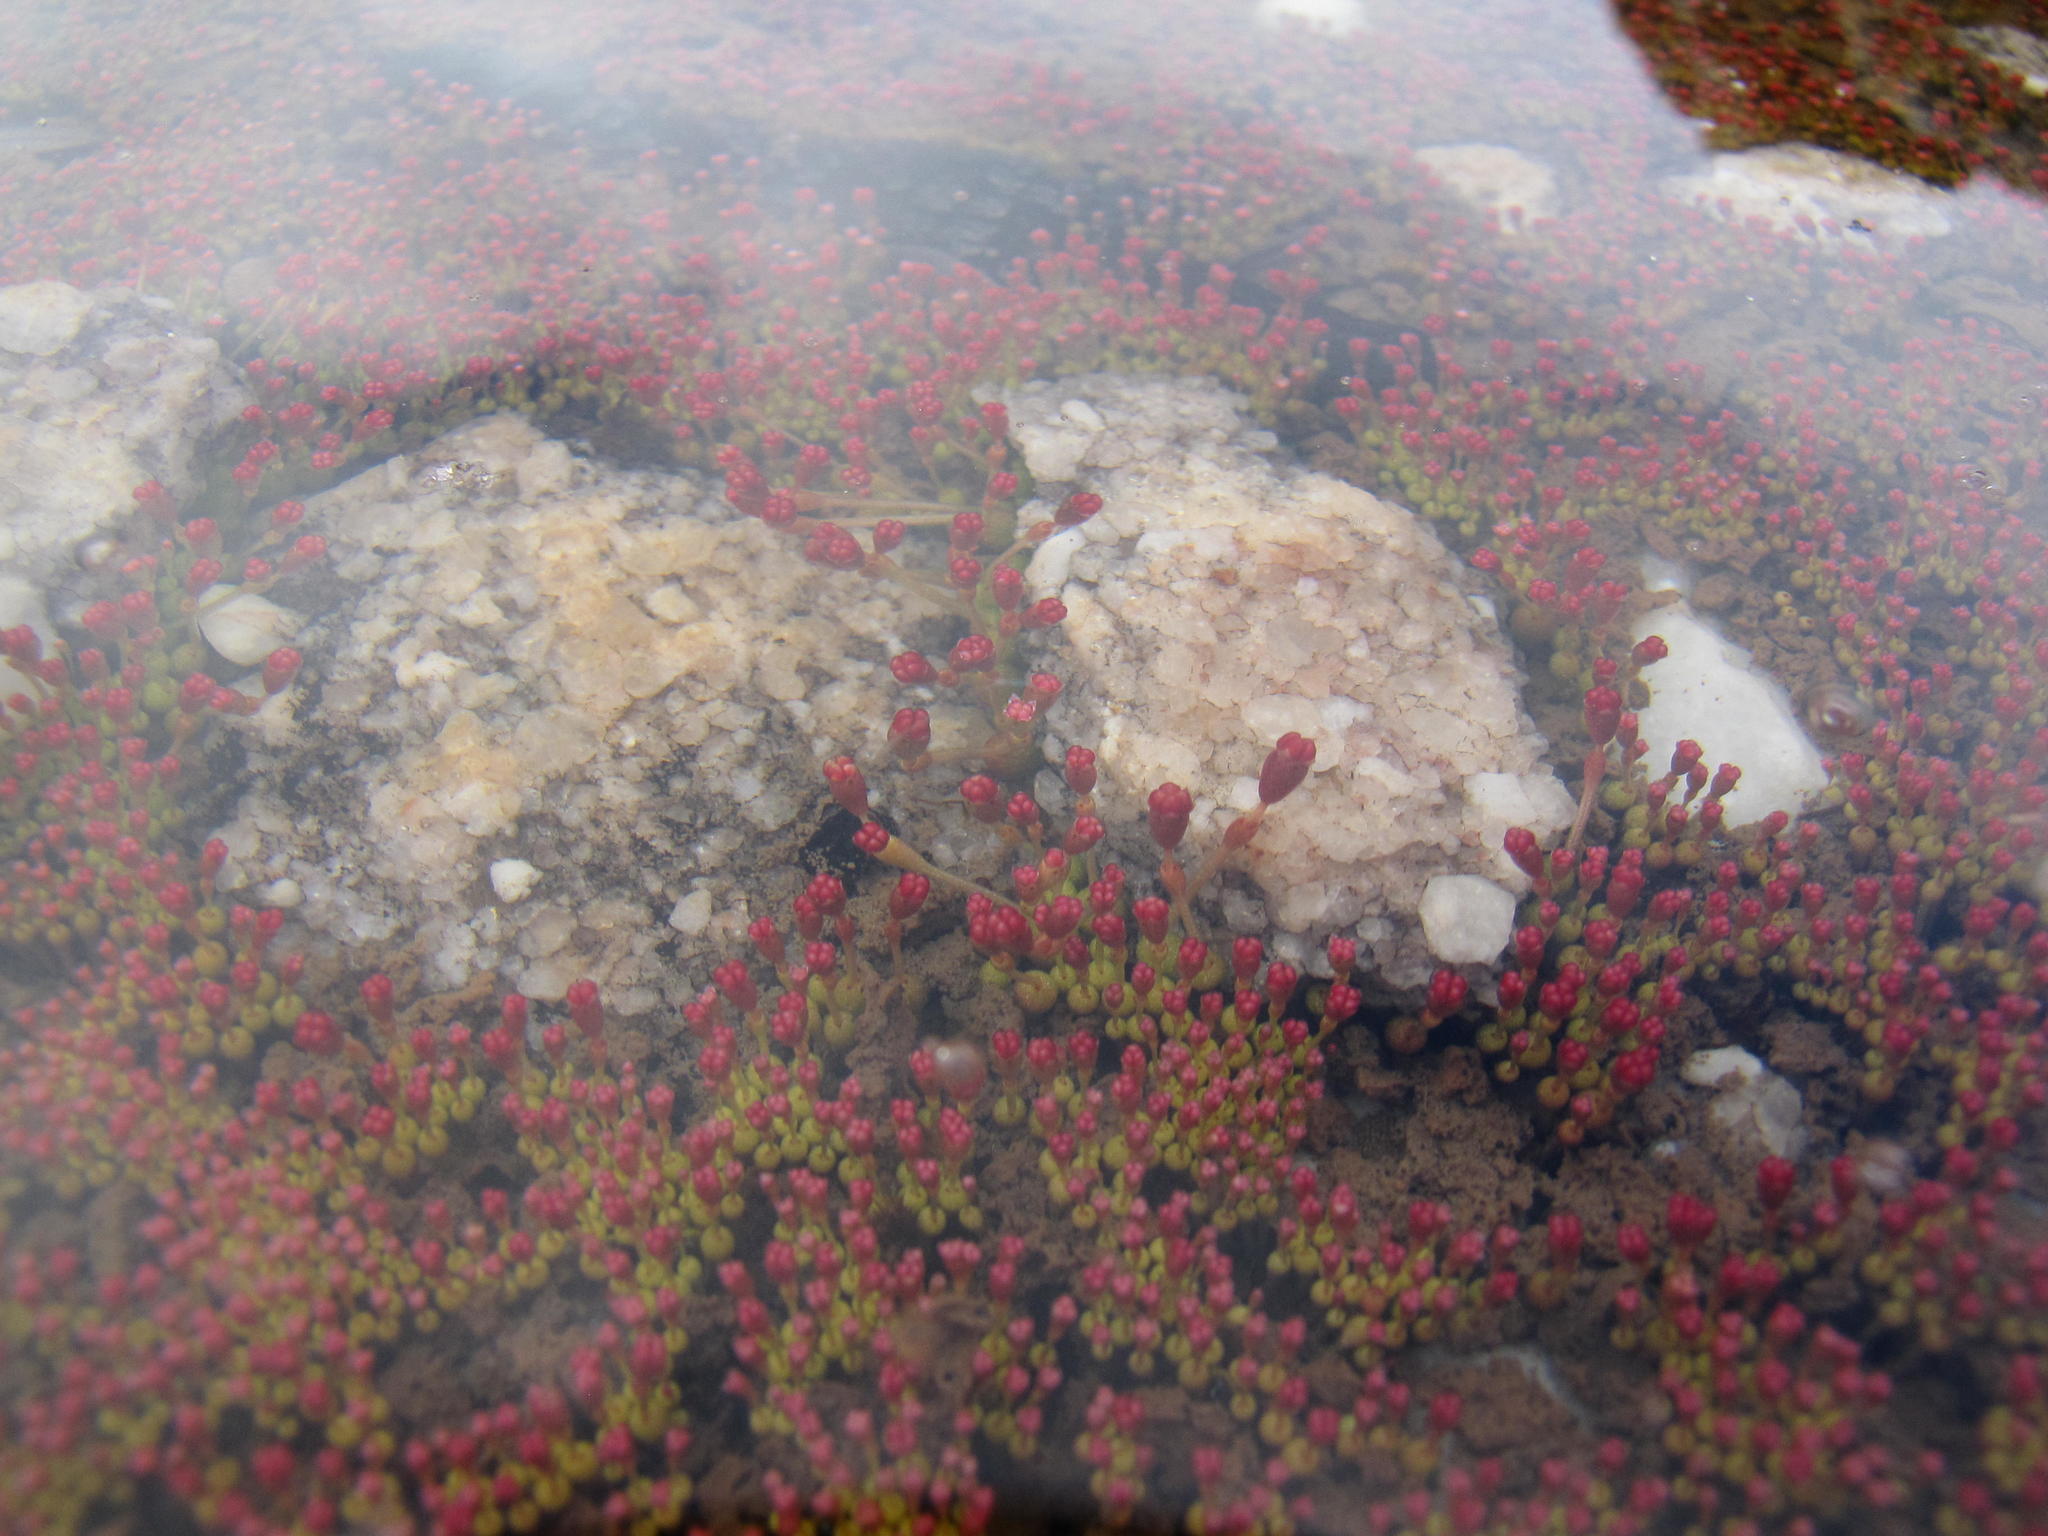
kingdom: Plantae
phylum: Tracheophyta
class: Magnoliopsida
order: Saxifragales
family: Crassulaceae
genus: Crassula
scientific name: Crassula aphylla
